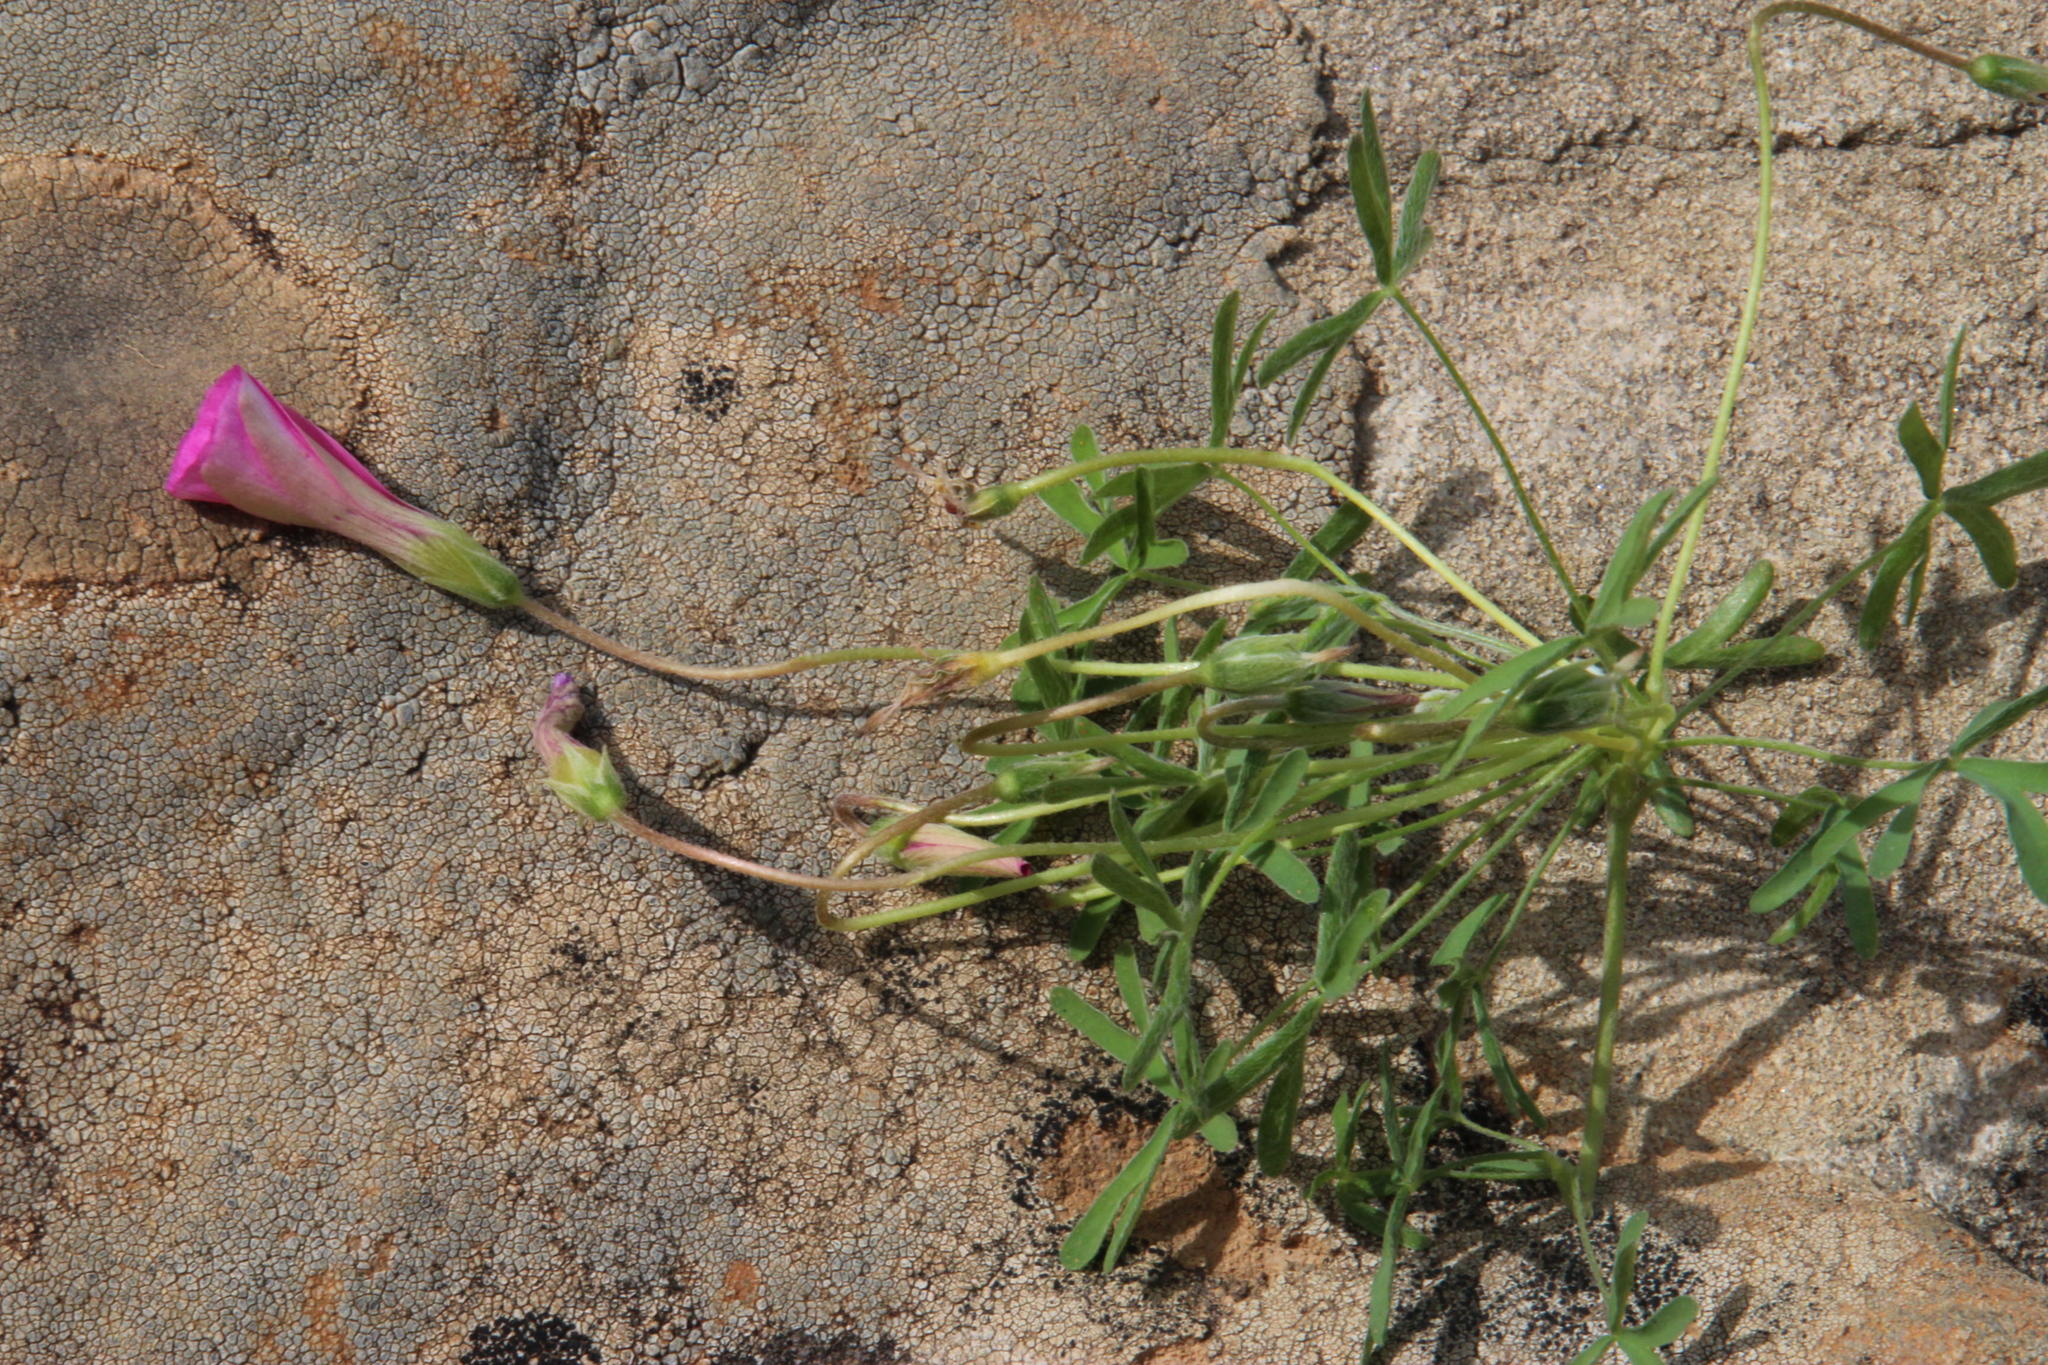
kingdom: Plantae
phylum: Tracheophyta
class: Magnoliopsida
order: Oxalidales
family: Oxalidaceae
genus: Oxalis
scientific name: Oxalis bifurca
